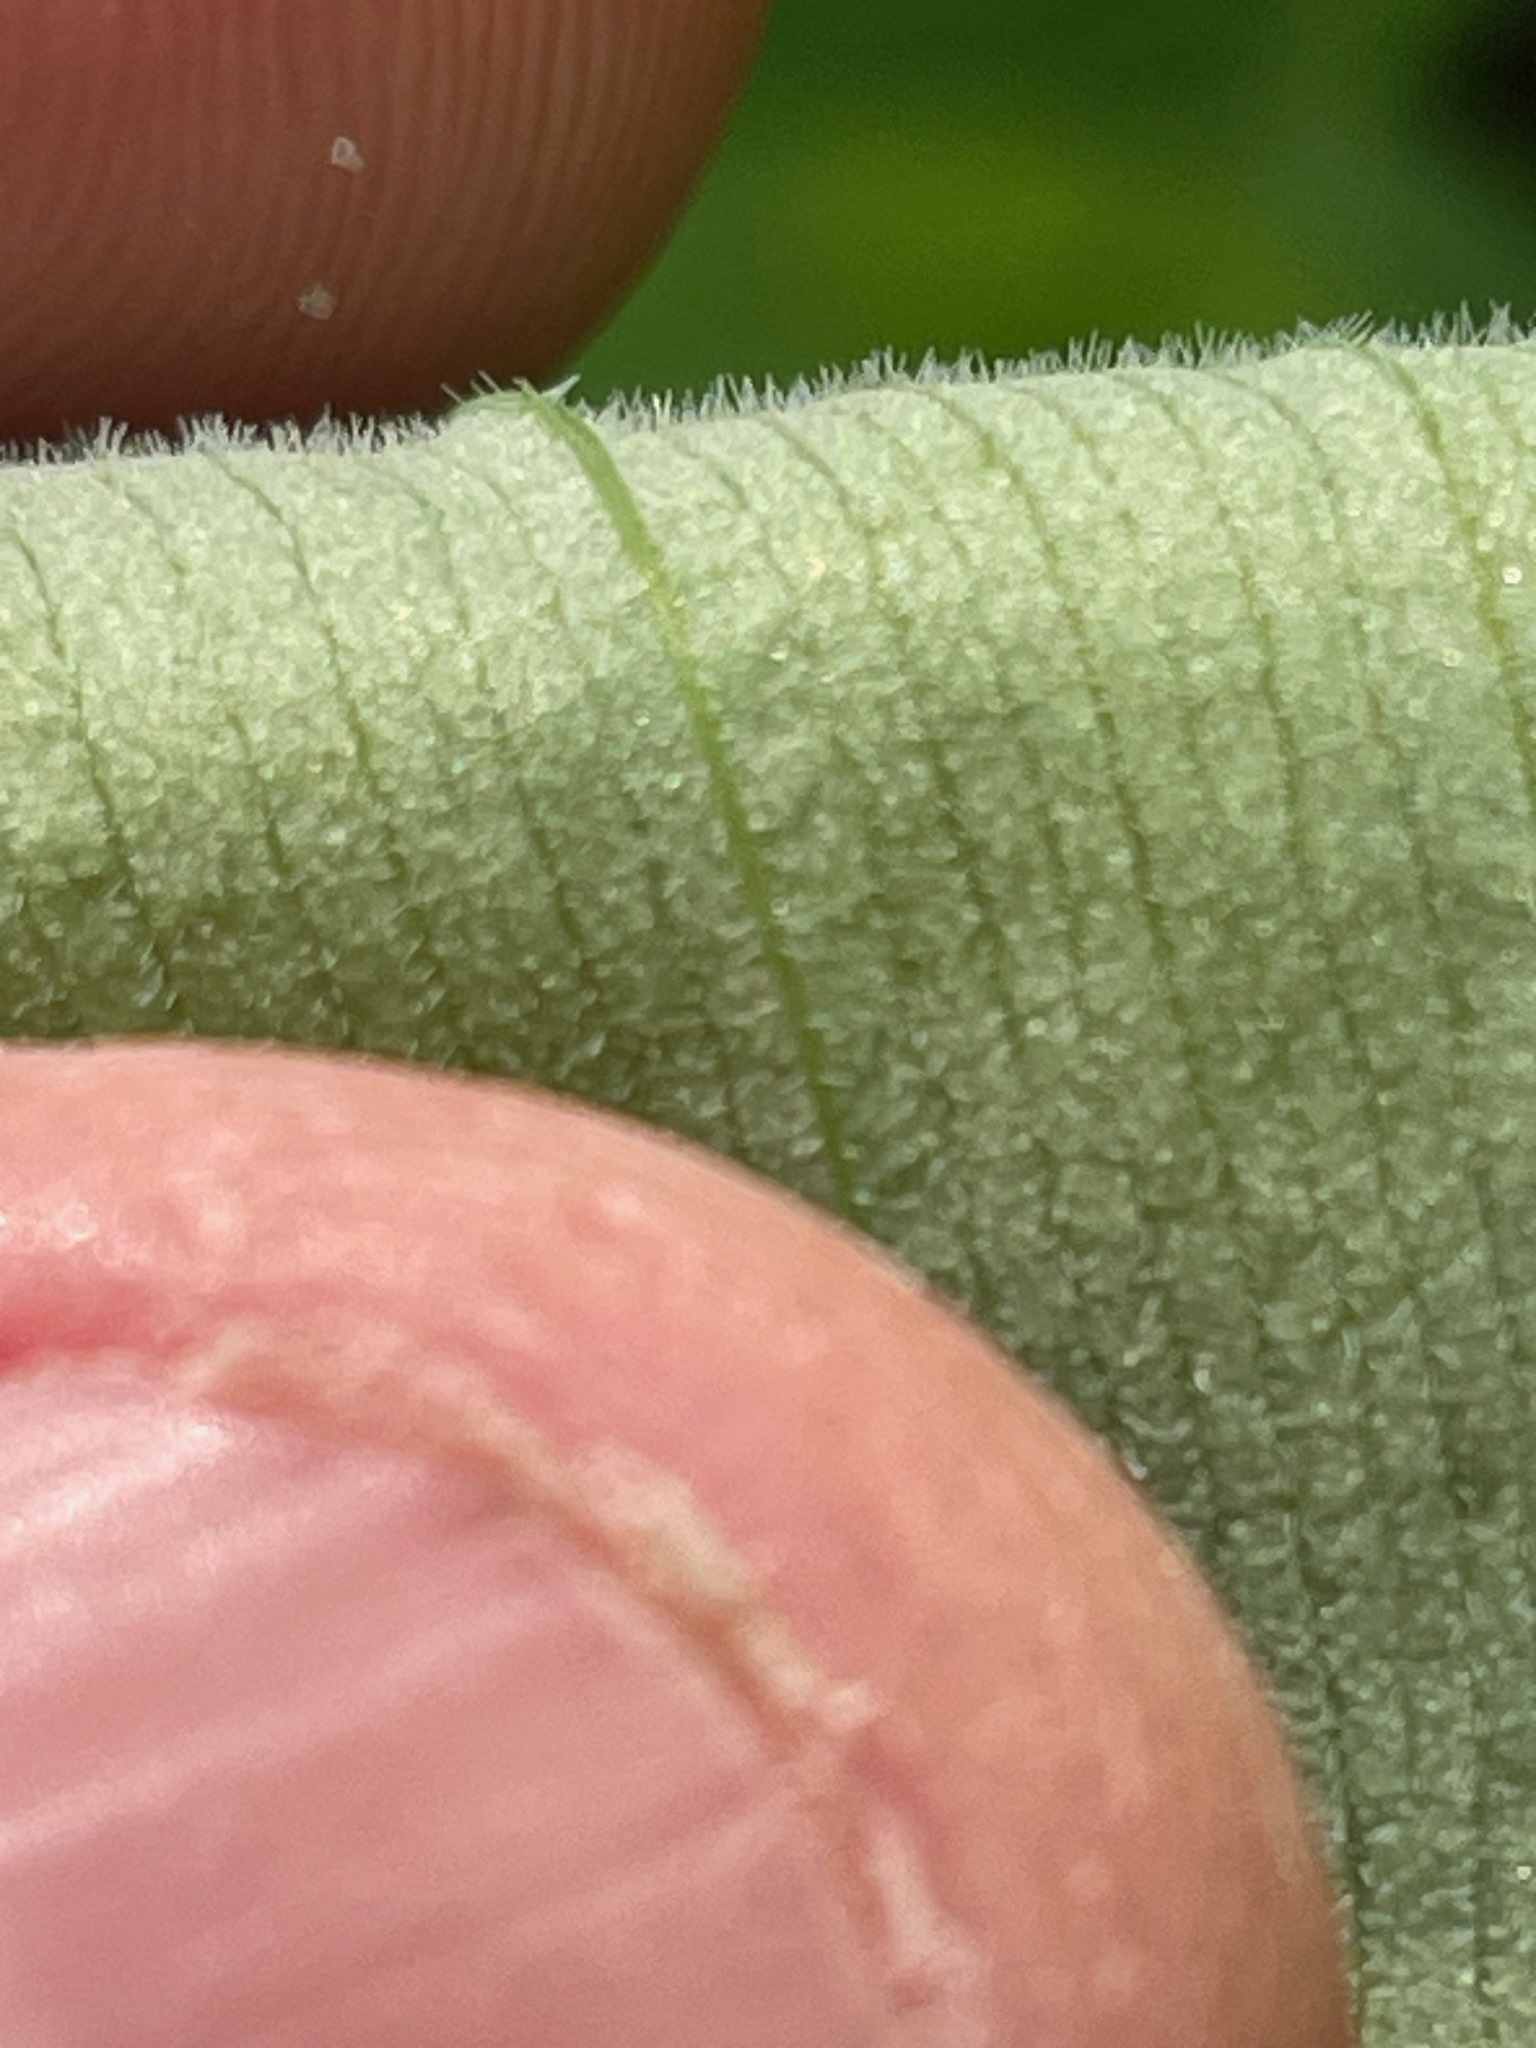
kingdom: Plantae
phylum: Tracheophyta
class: Liliopsida
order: Liliales
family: Colchicaceae
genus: Uvularia
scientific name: Uvularia grandiflora
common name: Bellwort
